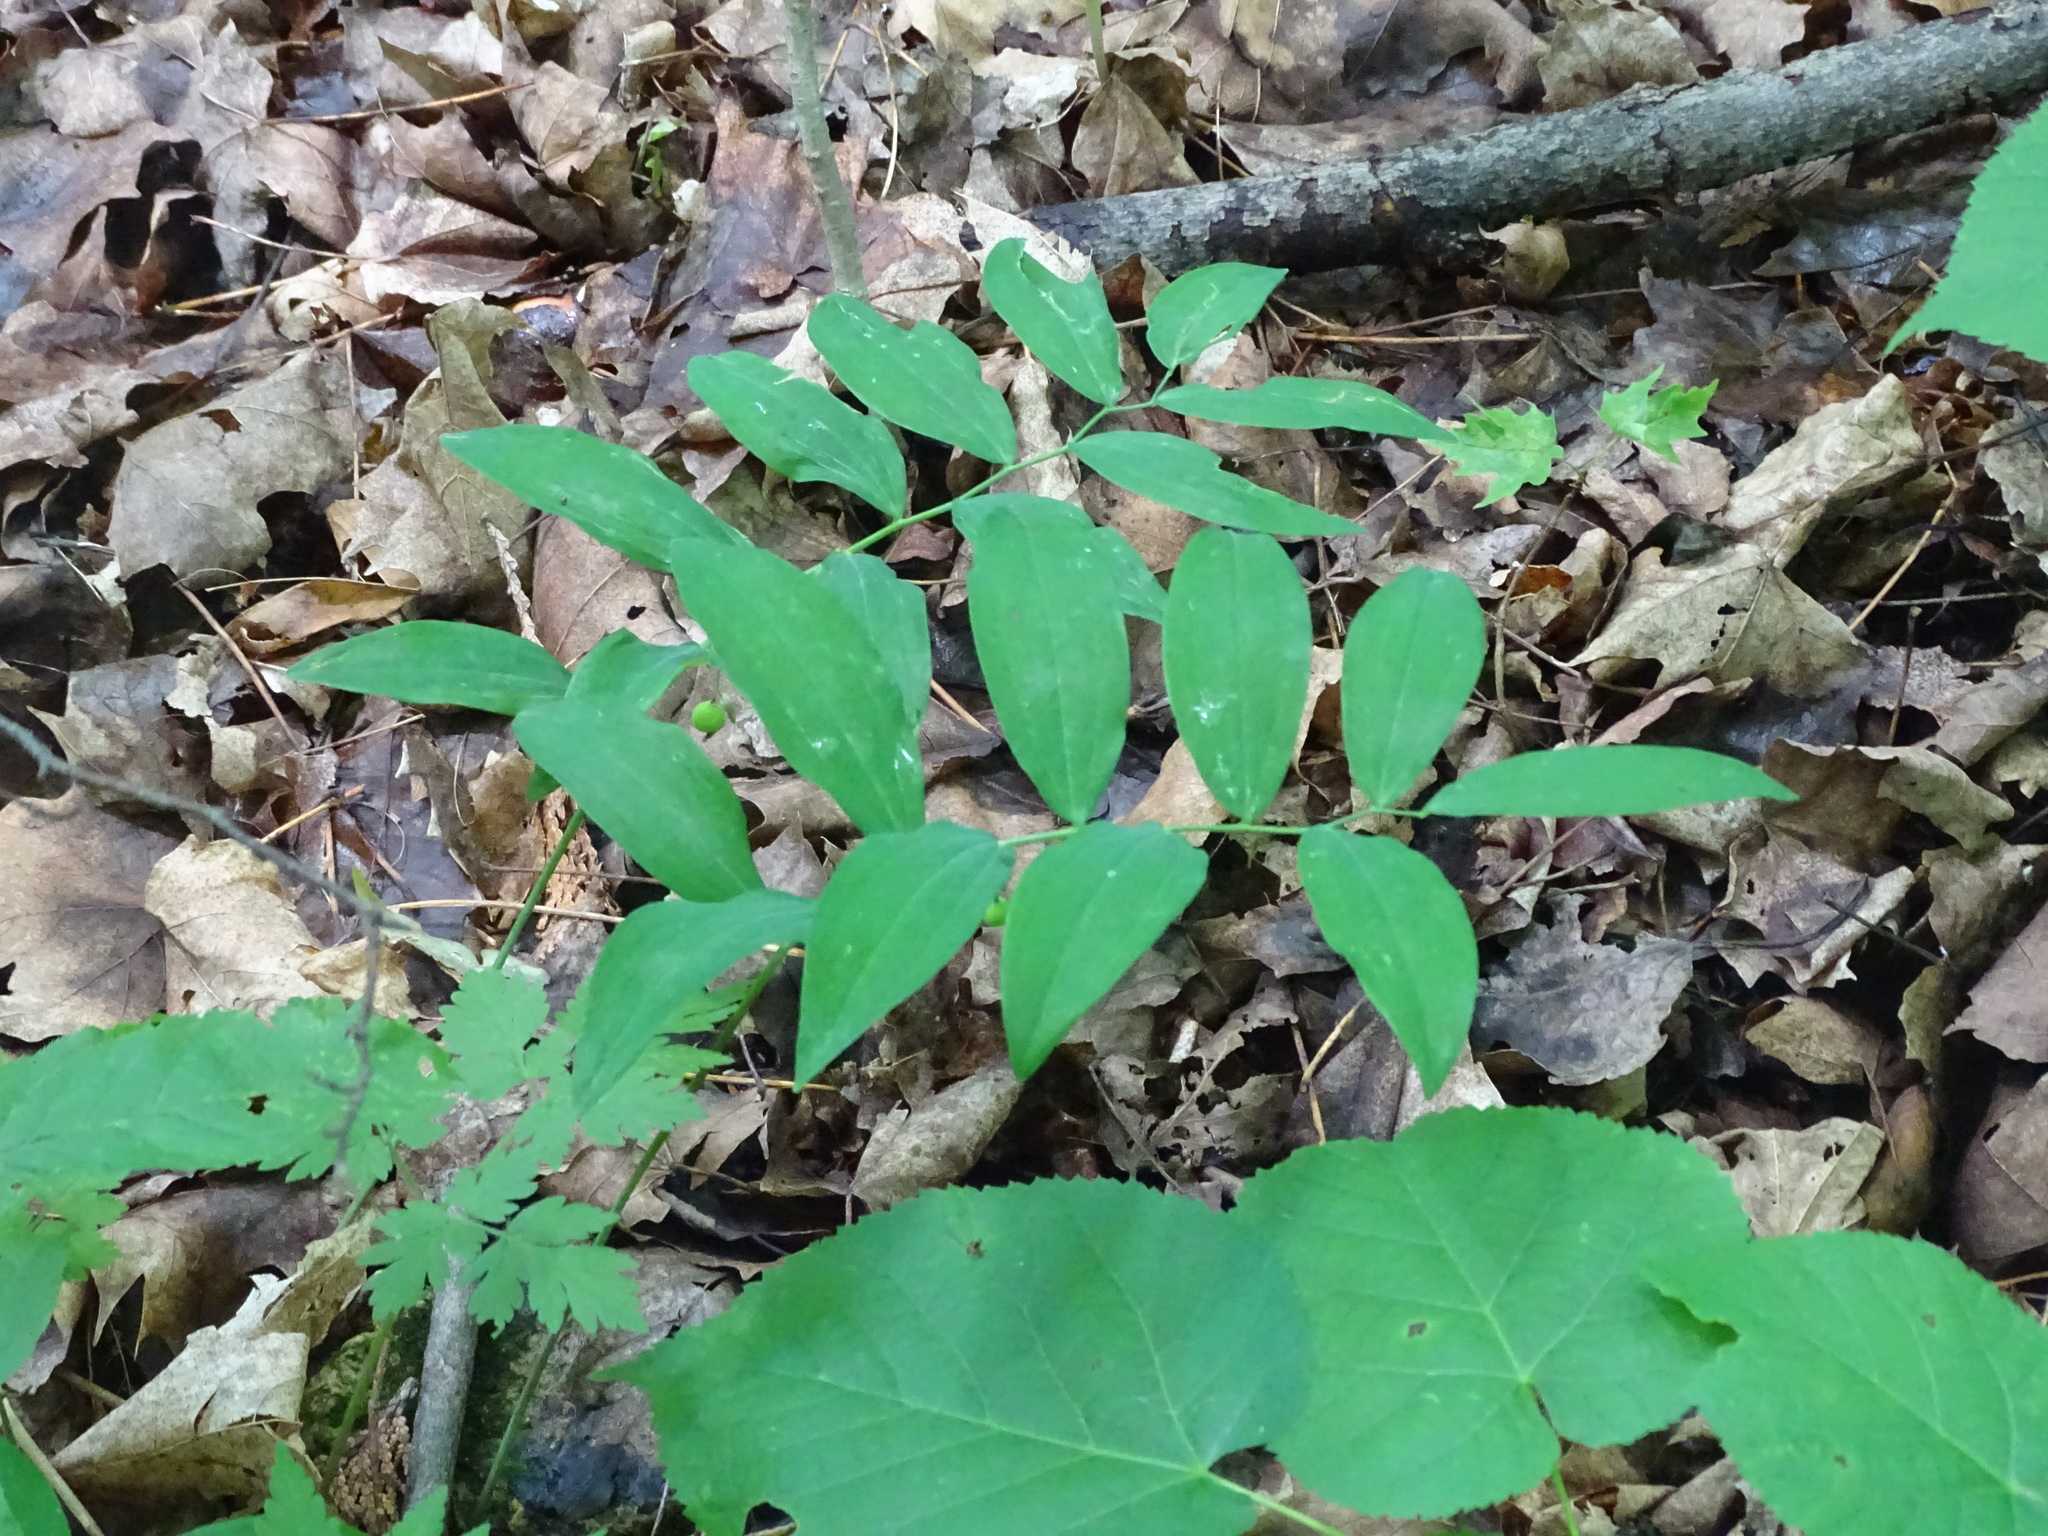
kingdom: Plantae
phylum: Tracheophyta
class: Liliopsida
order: Asparagales
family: Asparagaceae
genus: Polygonatum
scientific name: Polygonatum pubescens
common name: Downy solomon's seal
